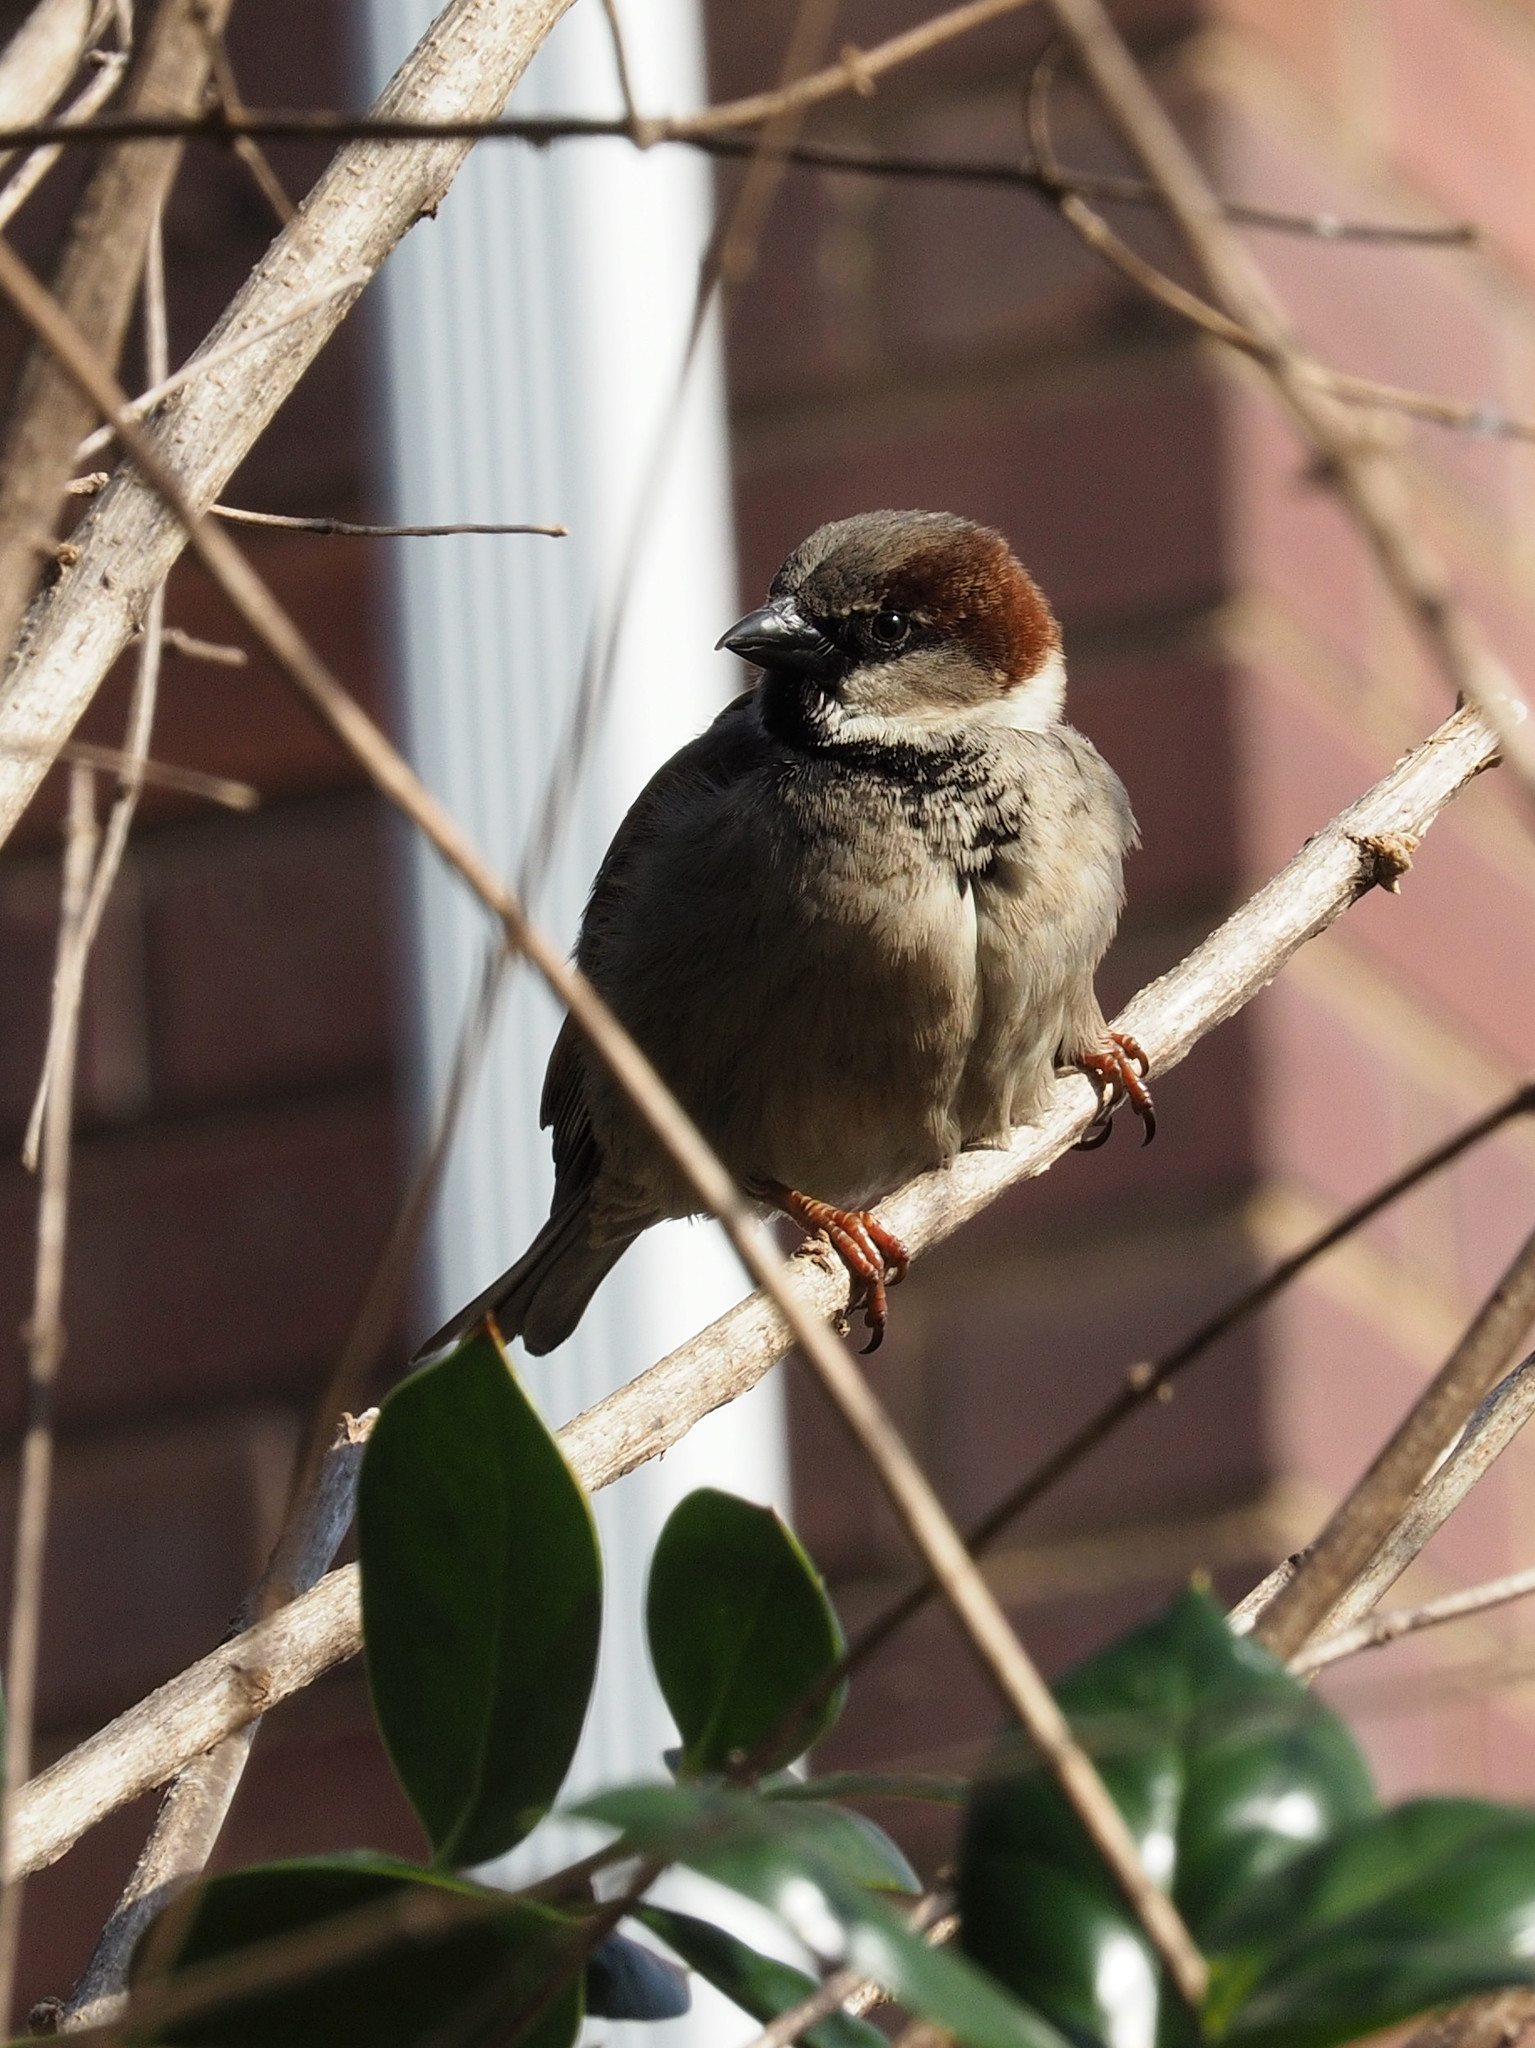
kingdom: Animalia
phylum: Chordata
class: Aves
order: Passeriformes
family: Passeridae
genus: Passer
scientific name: Passer domesticus
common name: House sparrow
